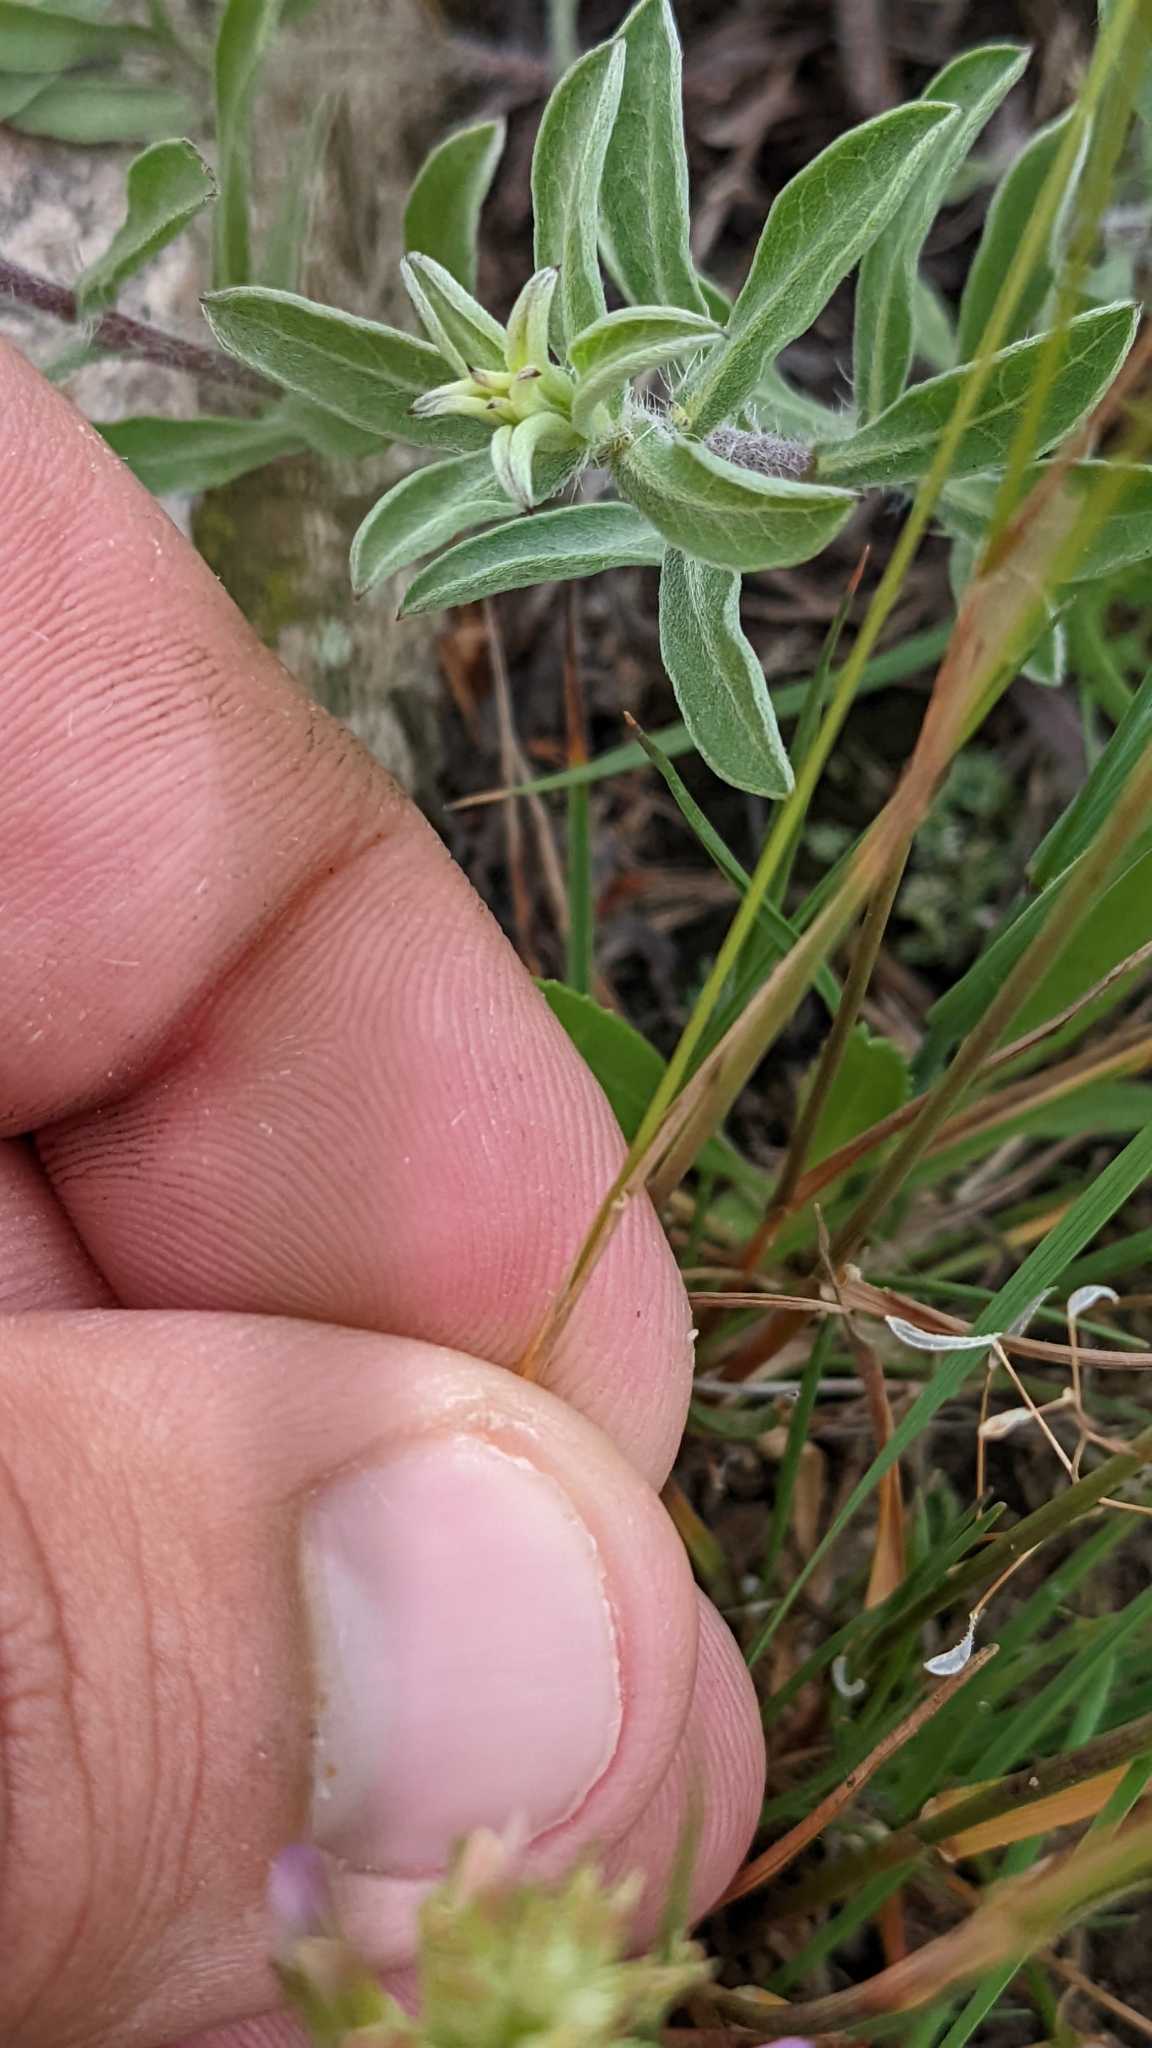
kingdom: Plantae
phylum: Tracheophyta
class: Liliopsida
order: Poales
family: Poaceae
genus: Koeleria
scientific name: Koeleria macrantha
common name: Crested hair-grass
